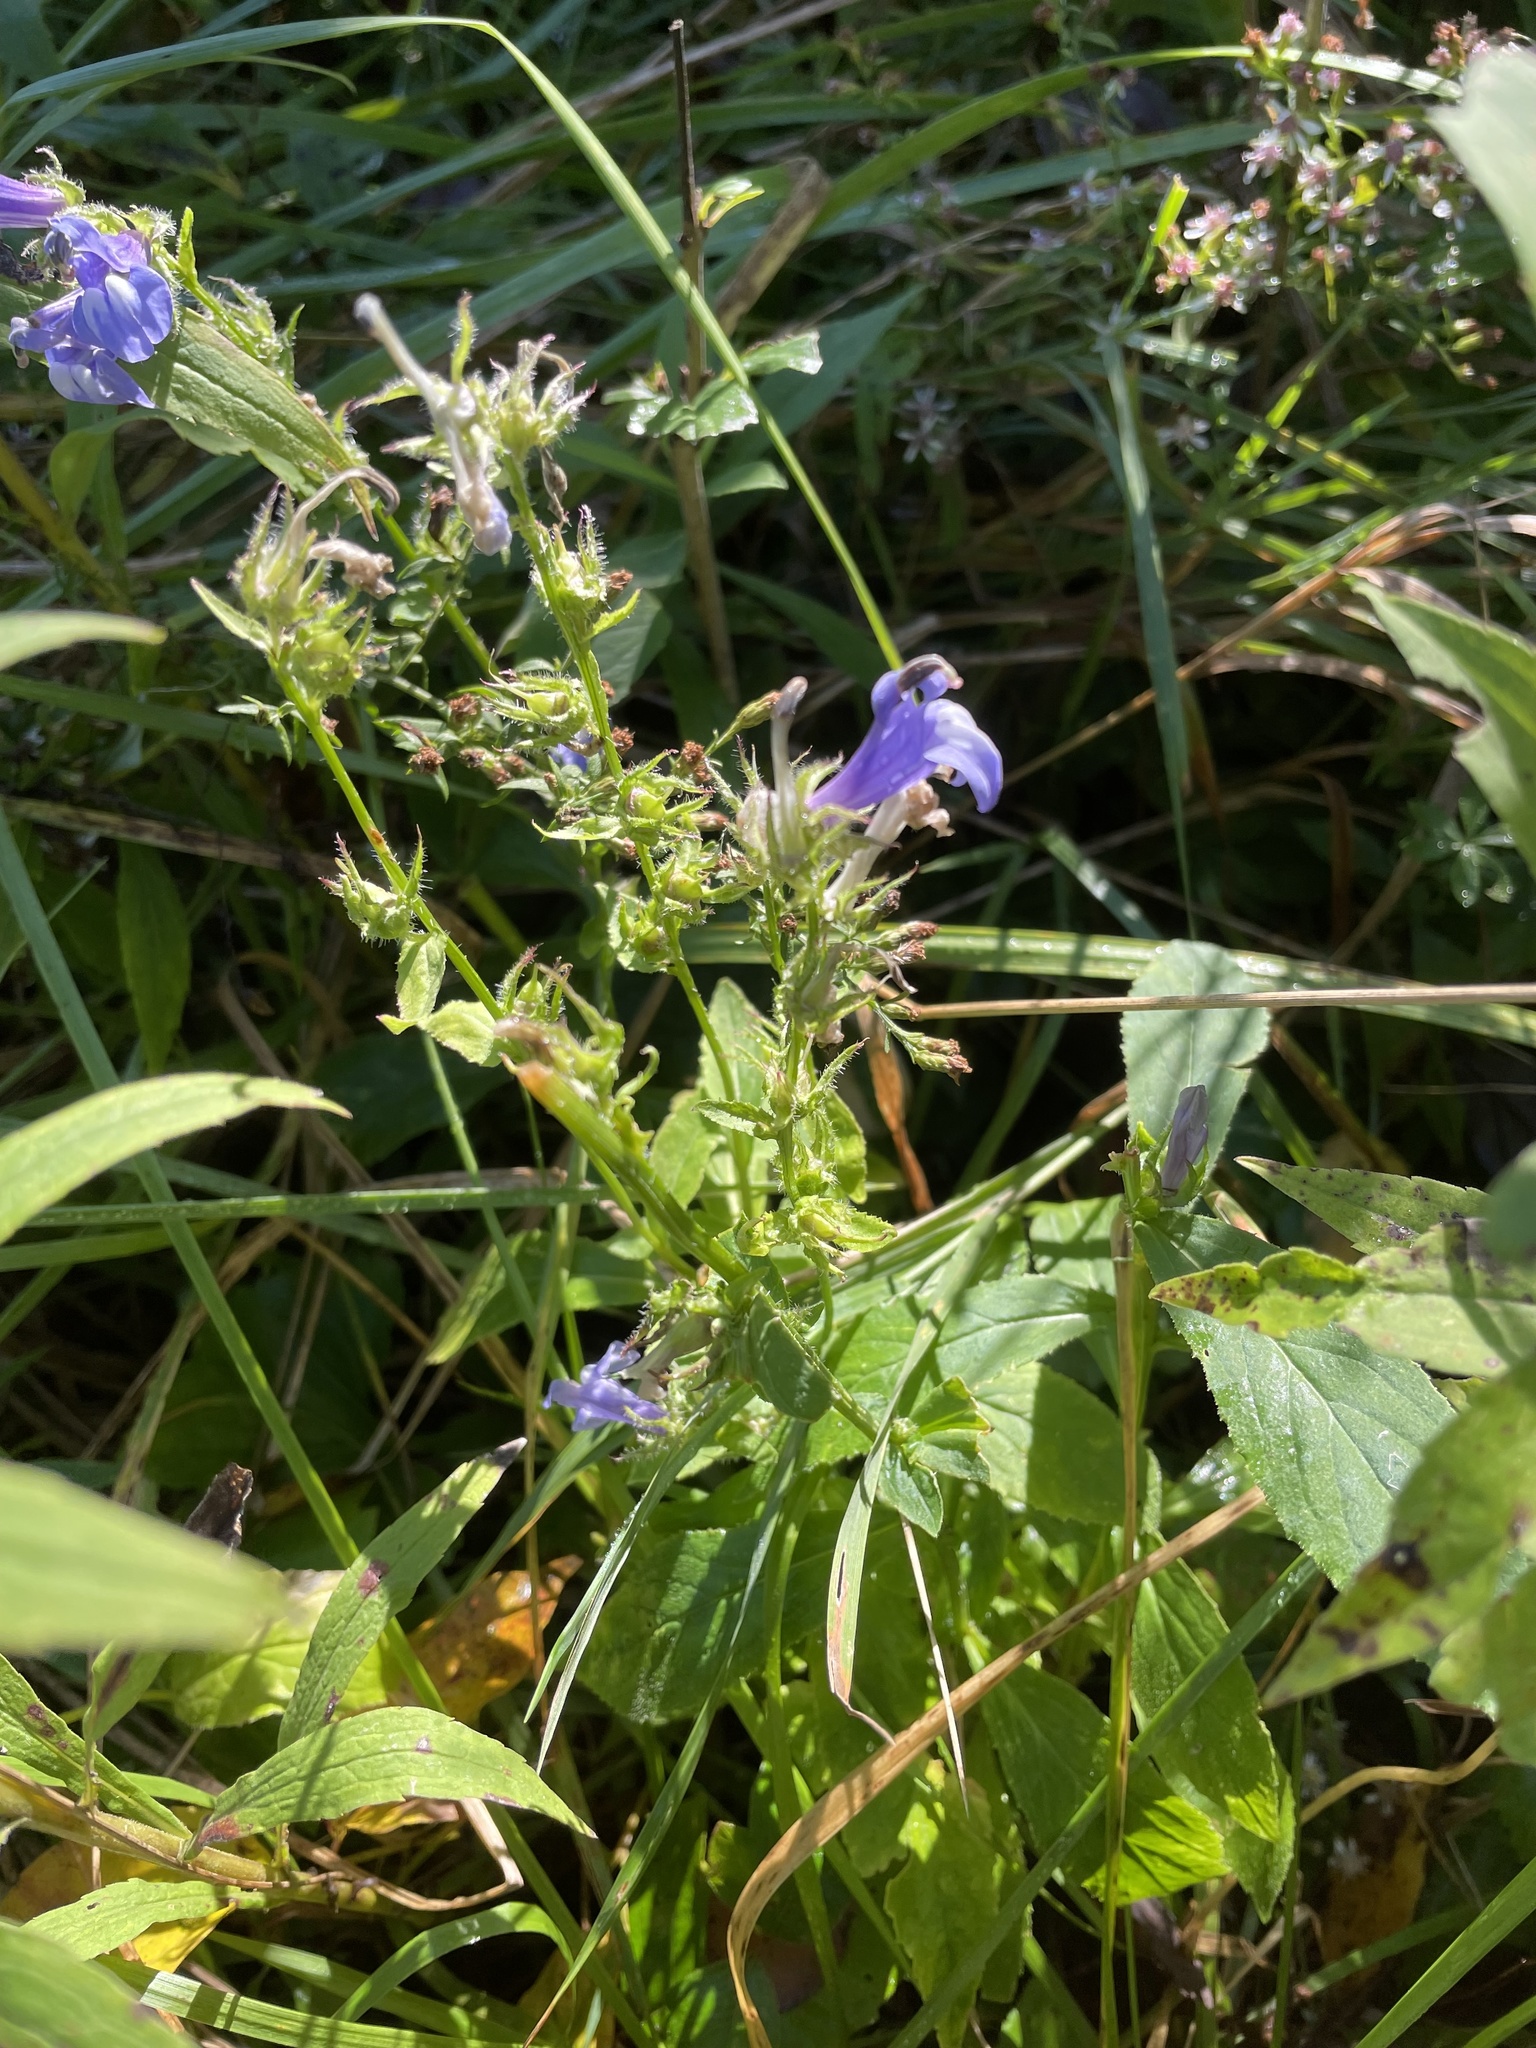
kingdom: Plantae
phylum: Tracheophyta
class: Magnoliopsida
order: Asterales
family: Campanulaceae
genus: Lobelia
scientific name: Lobelia siphilitica
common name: Great lobelia
